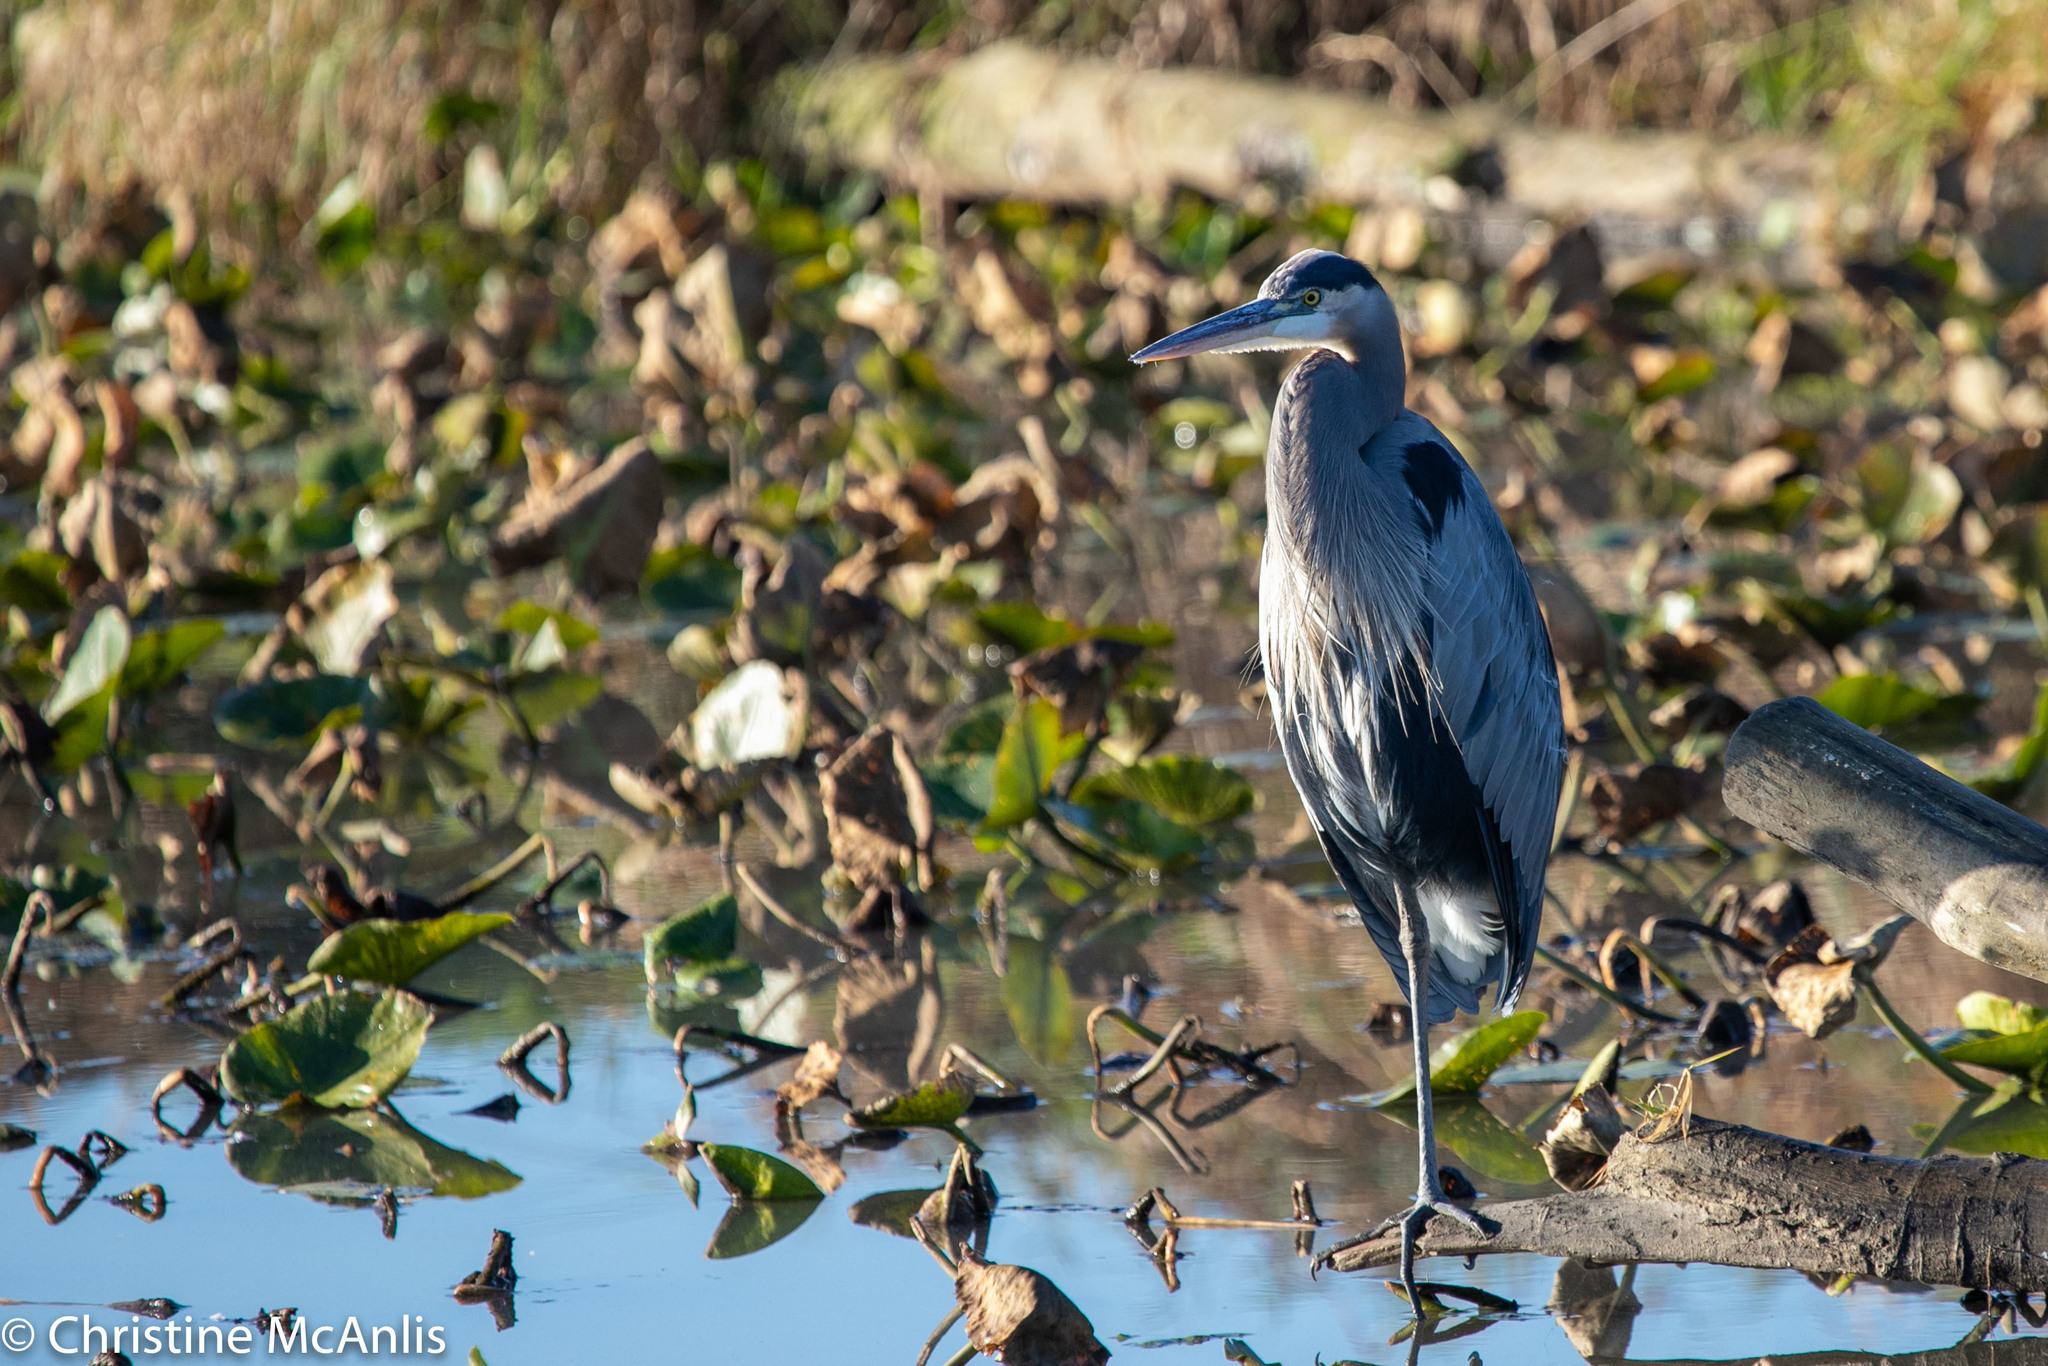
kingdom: Animalia
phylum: Chordata
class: Aves
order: Pelecaniformes
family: Ardeidae
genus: Ardea
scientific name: Ardea herodias
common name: Great blue heron
